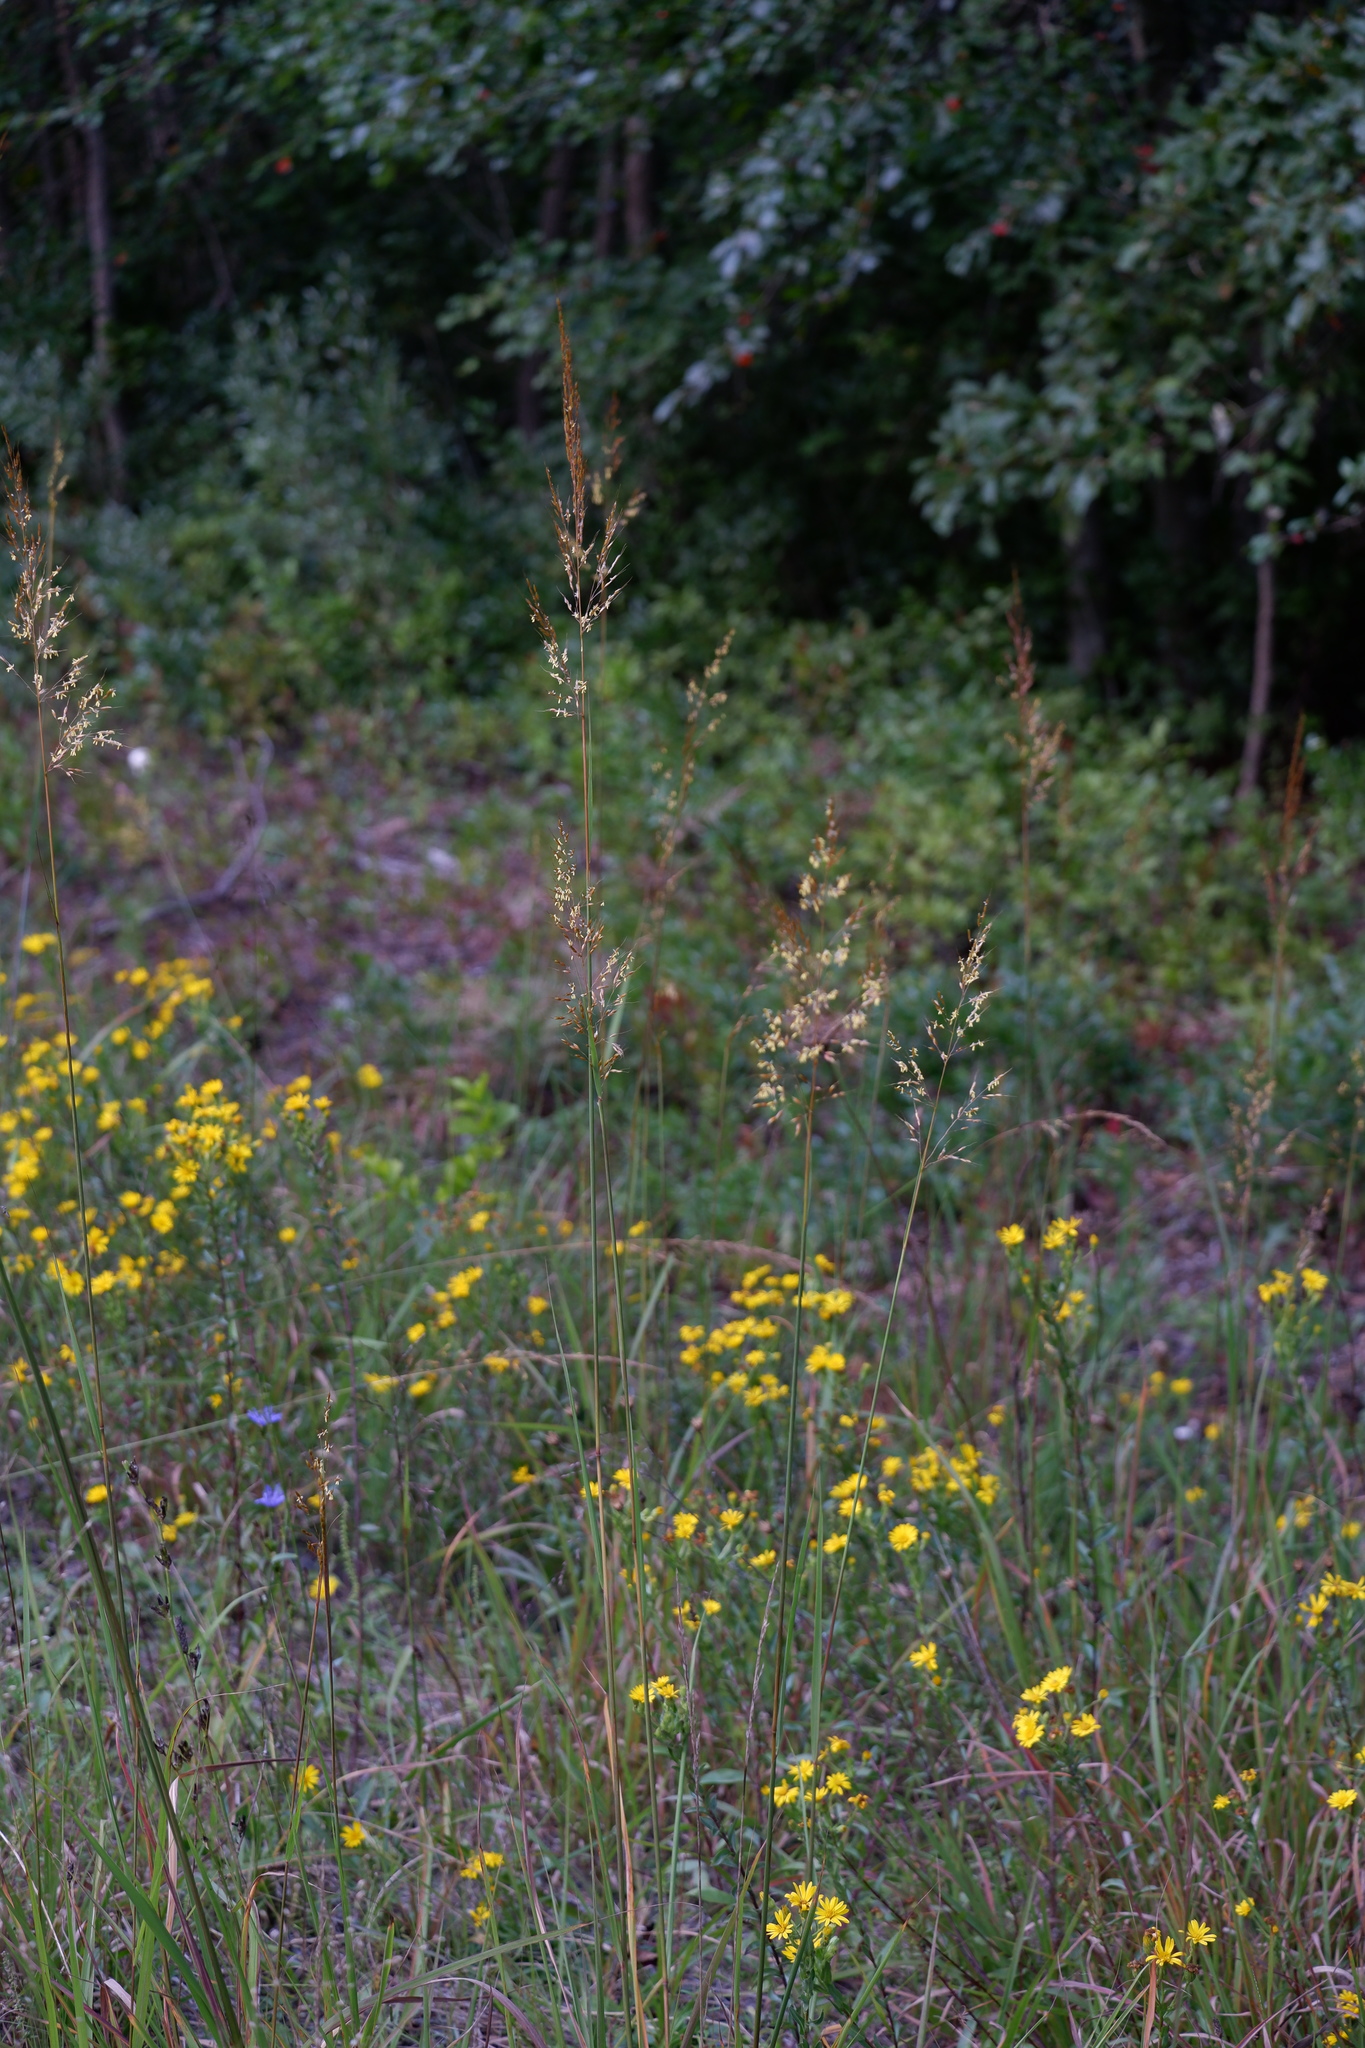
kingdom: Plantae
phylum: Tracheophyta
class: Liliopsida
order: Poales
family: Poaceae
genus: Sorghastrum
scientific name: Sorghastrum nutans
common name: Indian grass
